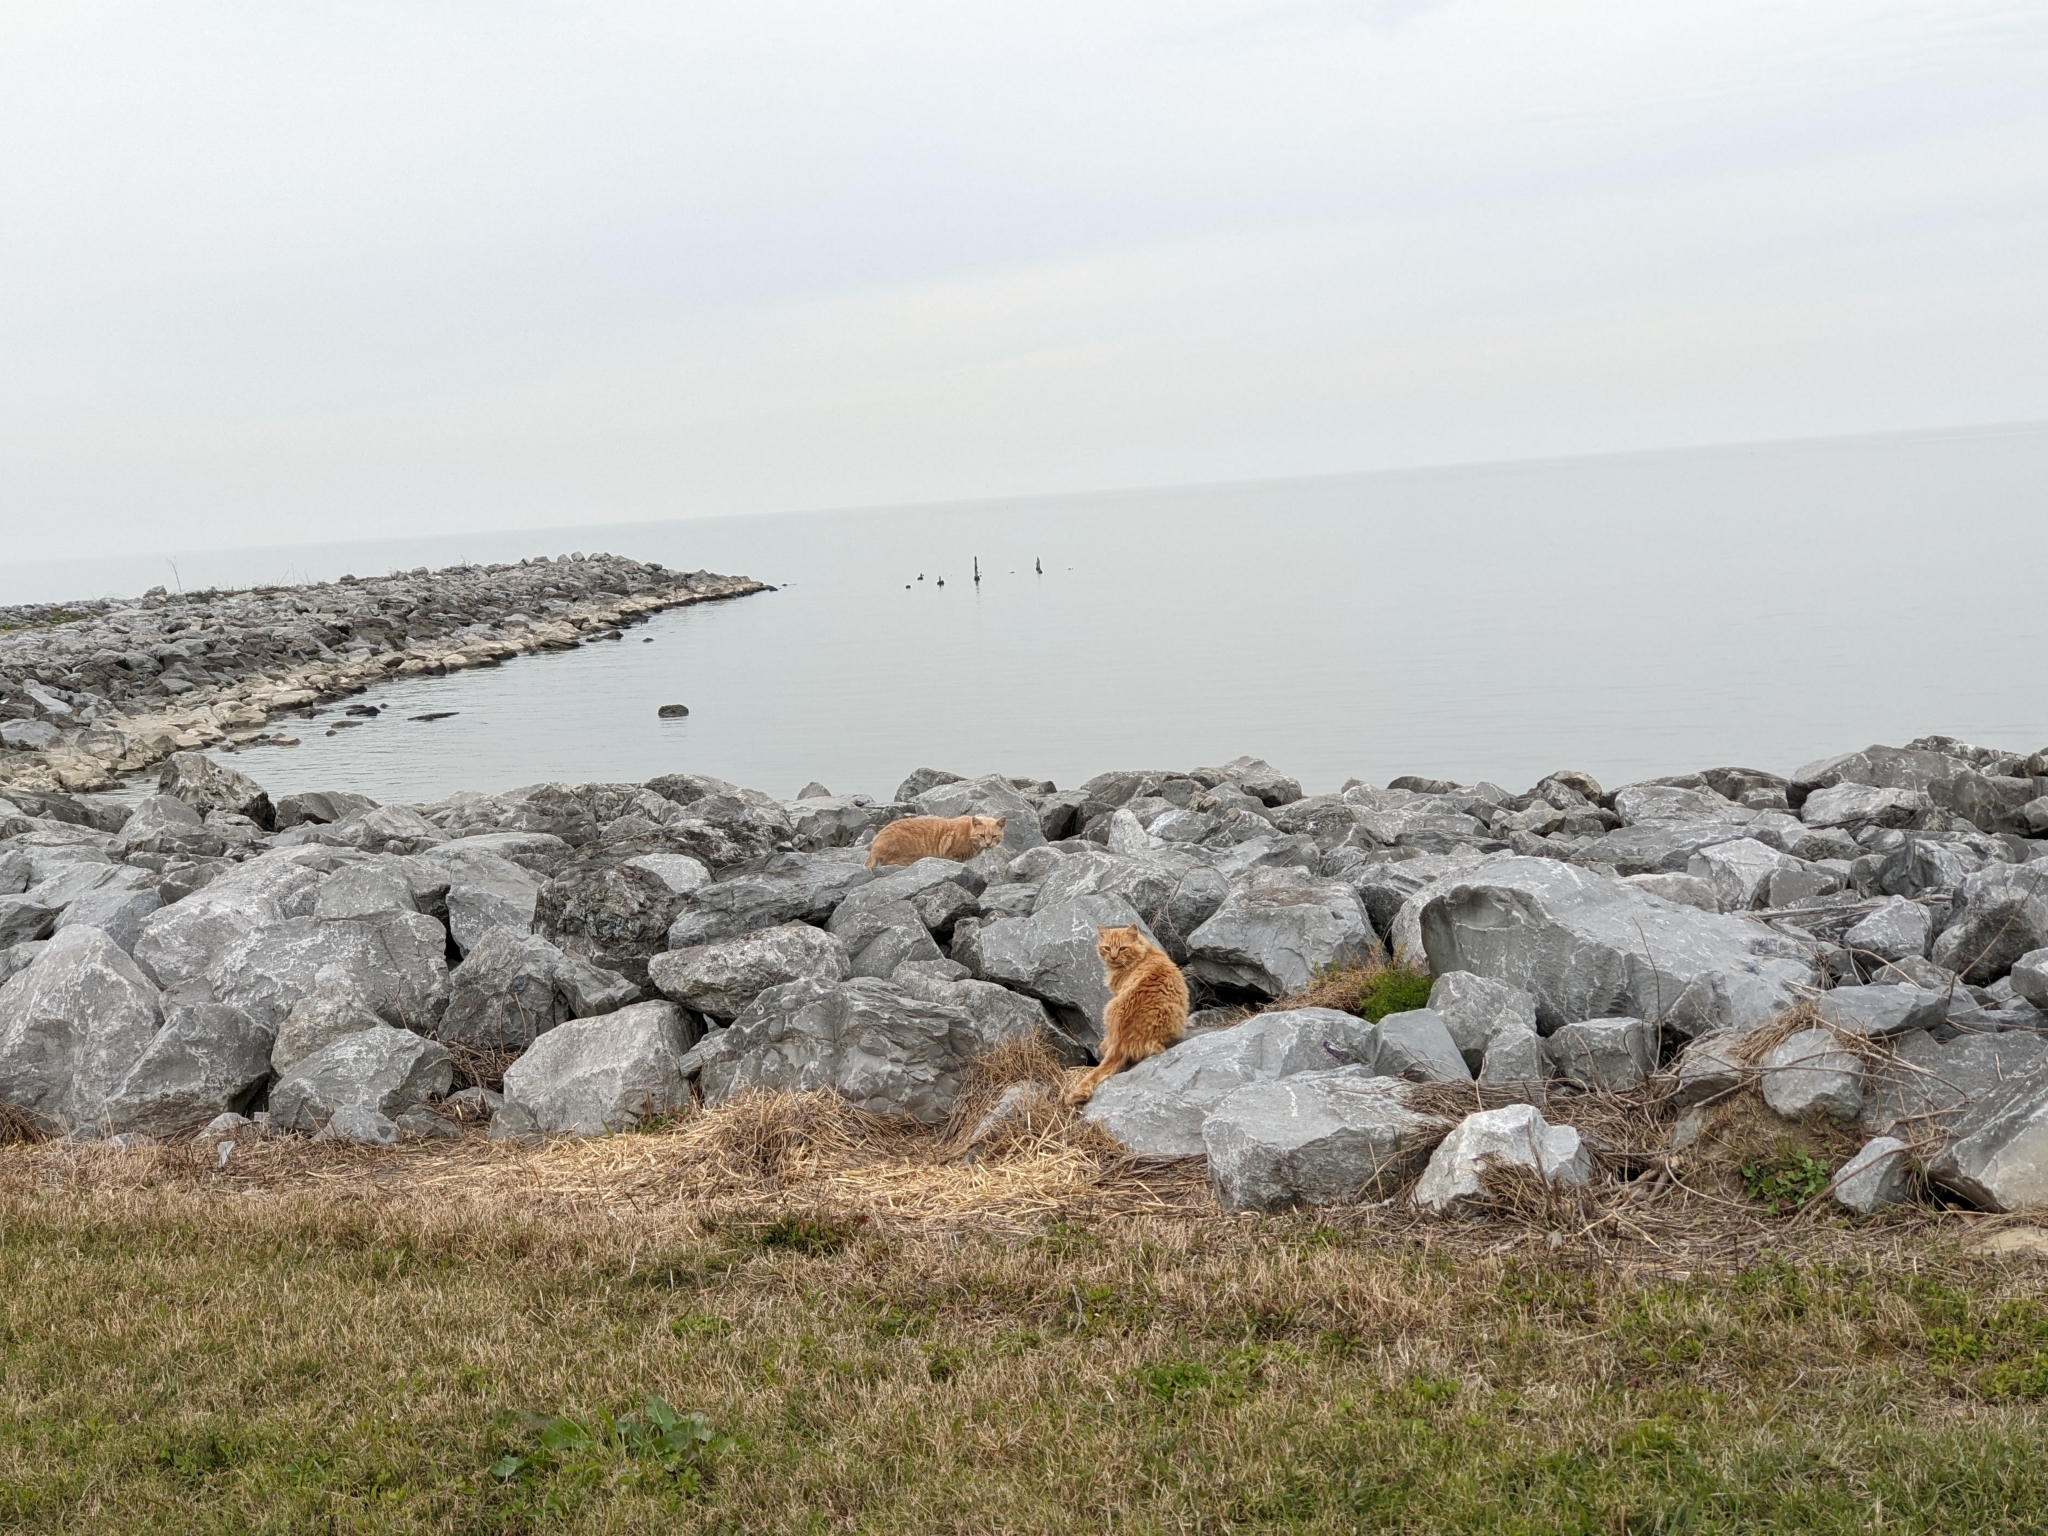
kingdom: Animalia
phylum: Chordata
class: Mammalia
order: Carnivora
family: Felidae
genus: Felis
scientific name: Felis catus
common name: Domestic cat
